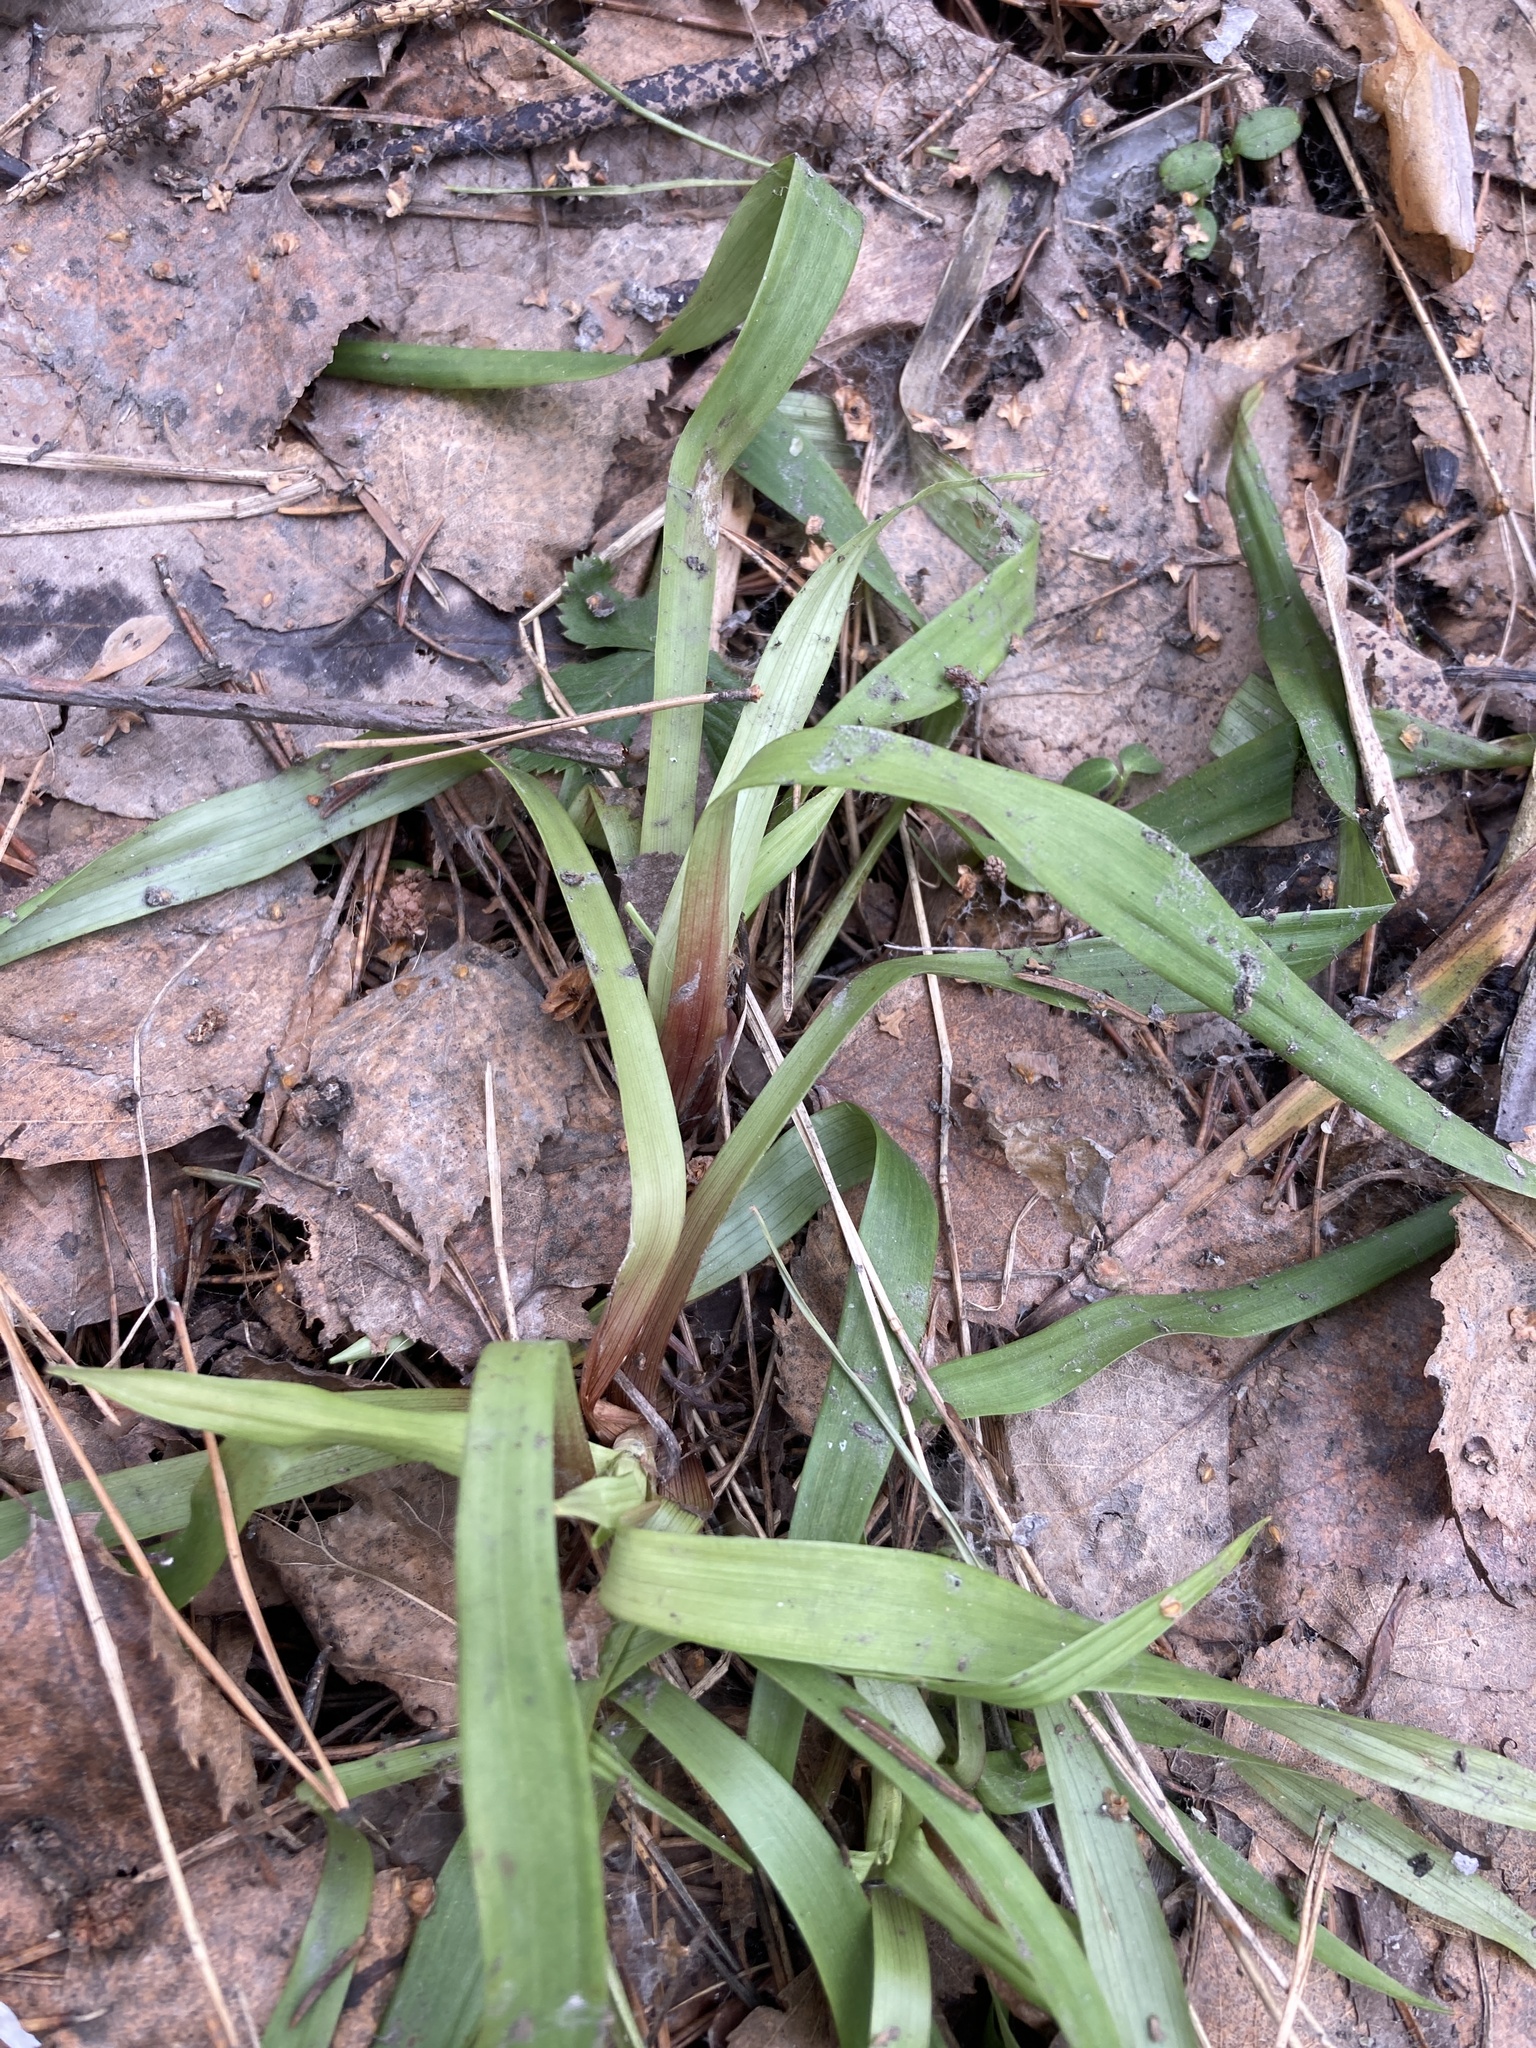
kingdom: Plantae
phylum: Tracheophyta
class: Liliopsida
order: Poales
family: Juncaceae
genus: Luzula
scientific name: Luzula pilosa
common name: Hairy wood-rush
